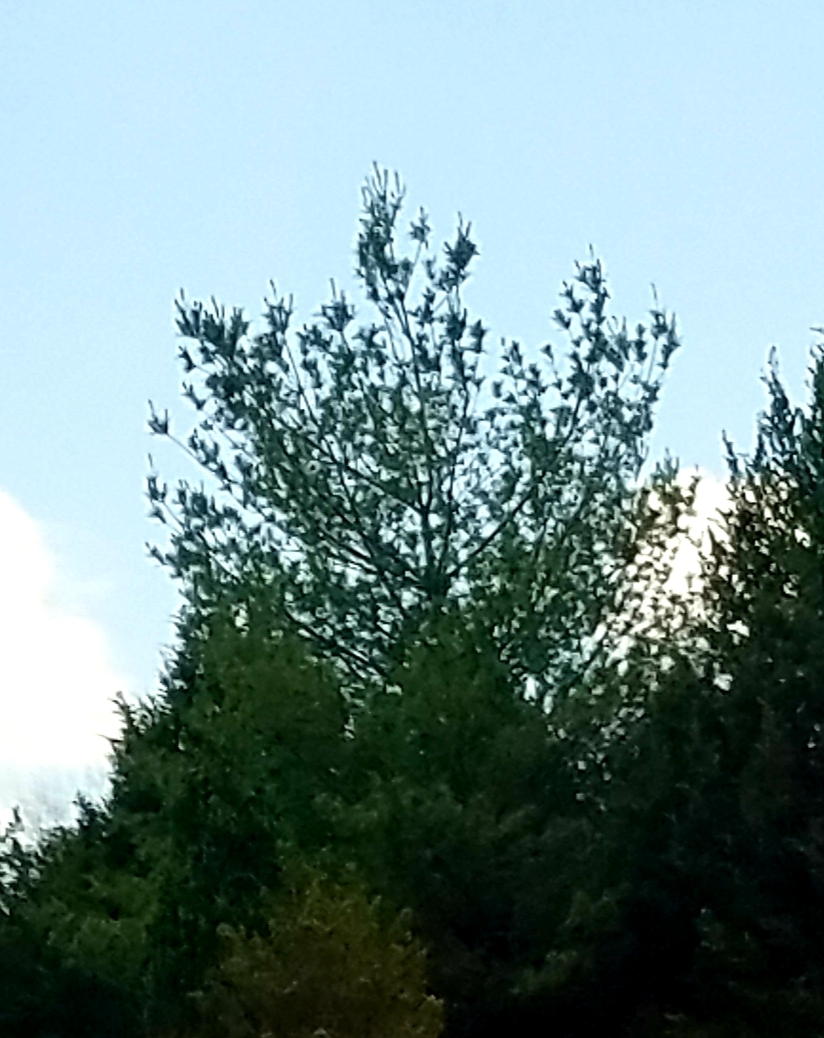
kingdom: Plantae
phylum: Tracheophyta
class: Pinopsida
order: Pinales
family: Pinaceae
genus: Pinus
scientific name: Pinus strobus
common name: Weymouth pine
